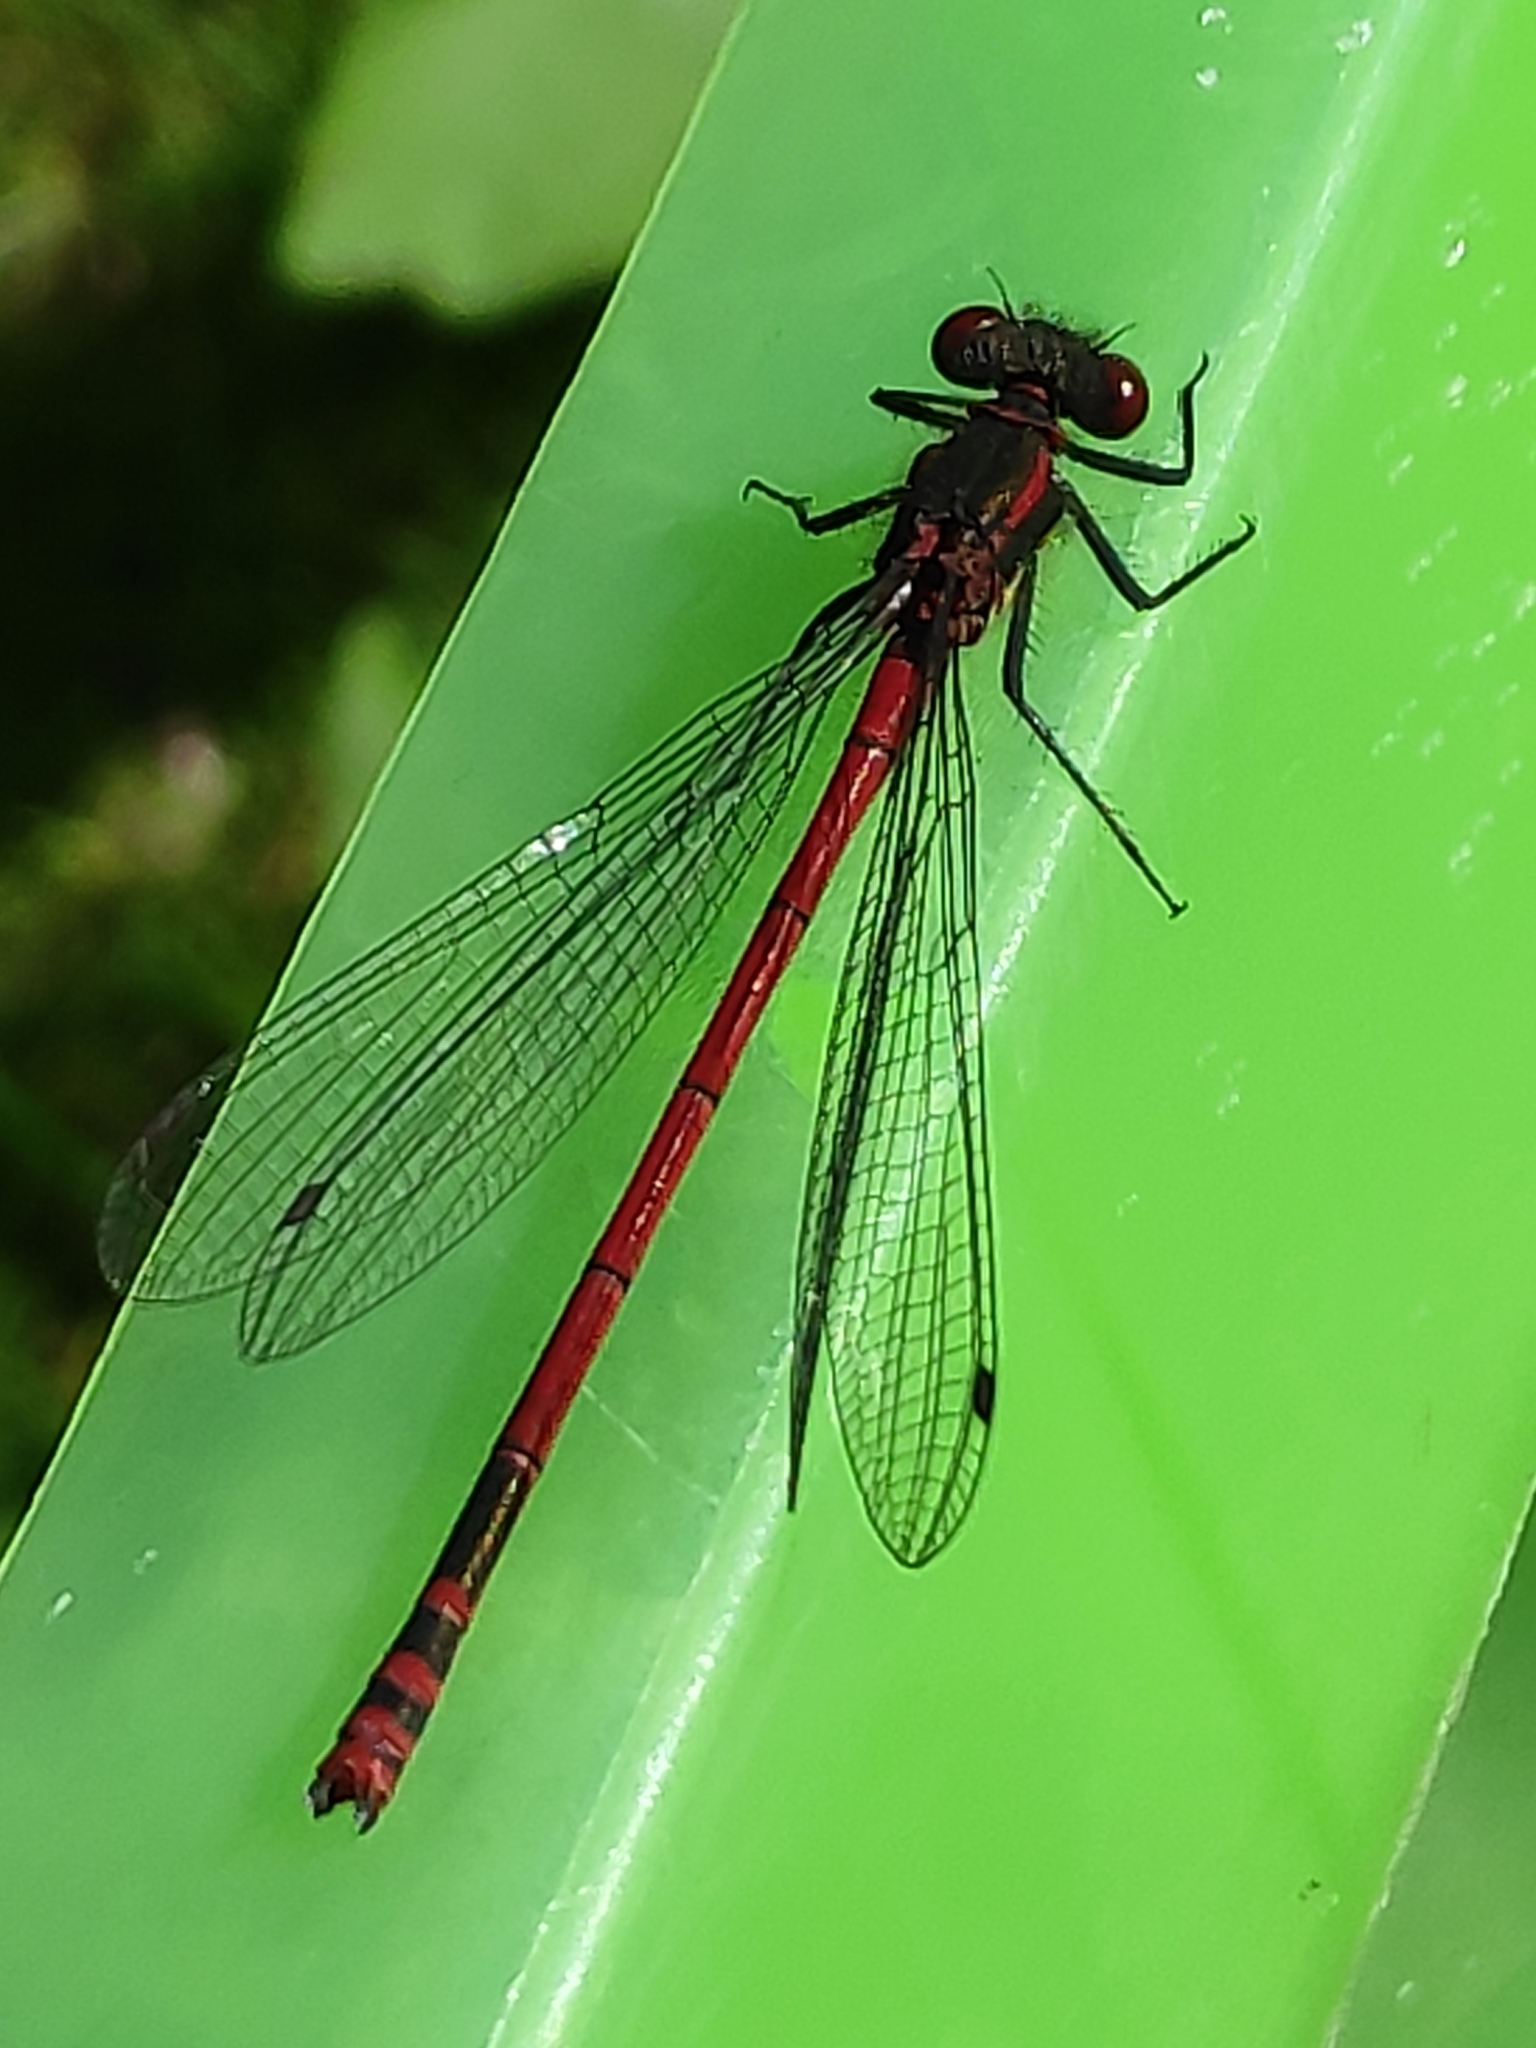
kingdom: Animalia
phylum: Arthropoda
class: Insecta
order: Odonata
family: Coenagrionidae
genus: Pyrrhosoma
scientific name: Pyrrhosoma nymphula
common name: Large red damsel
